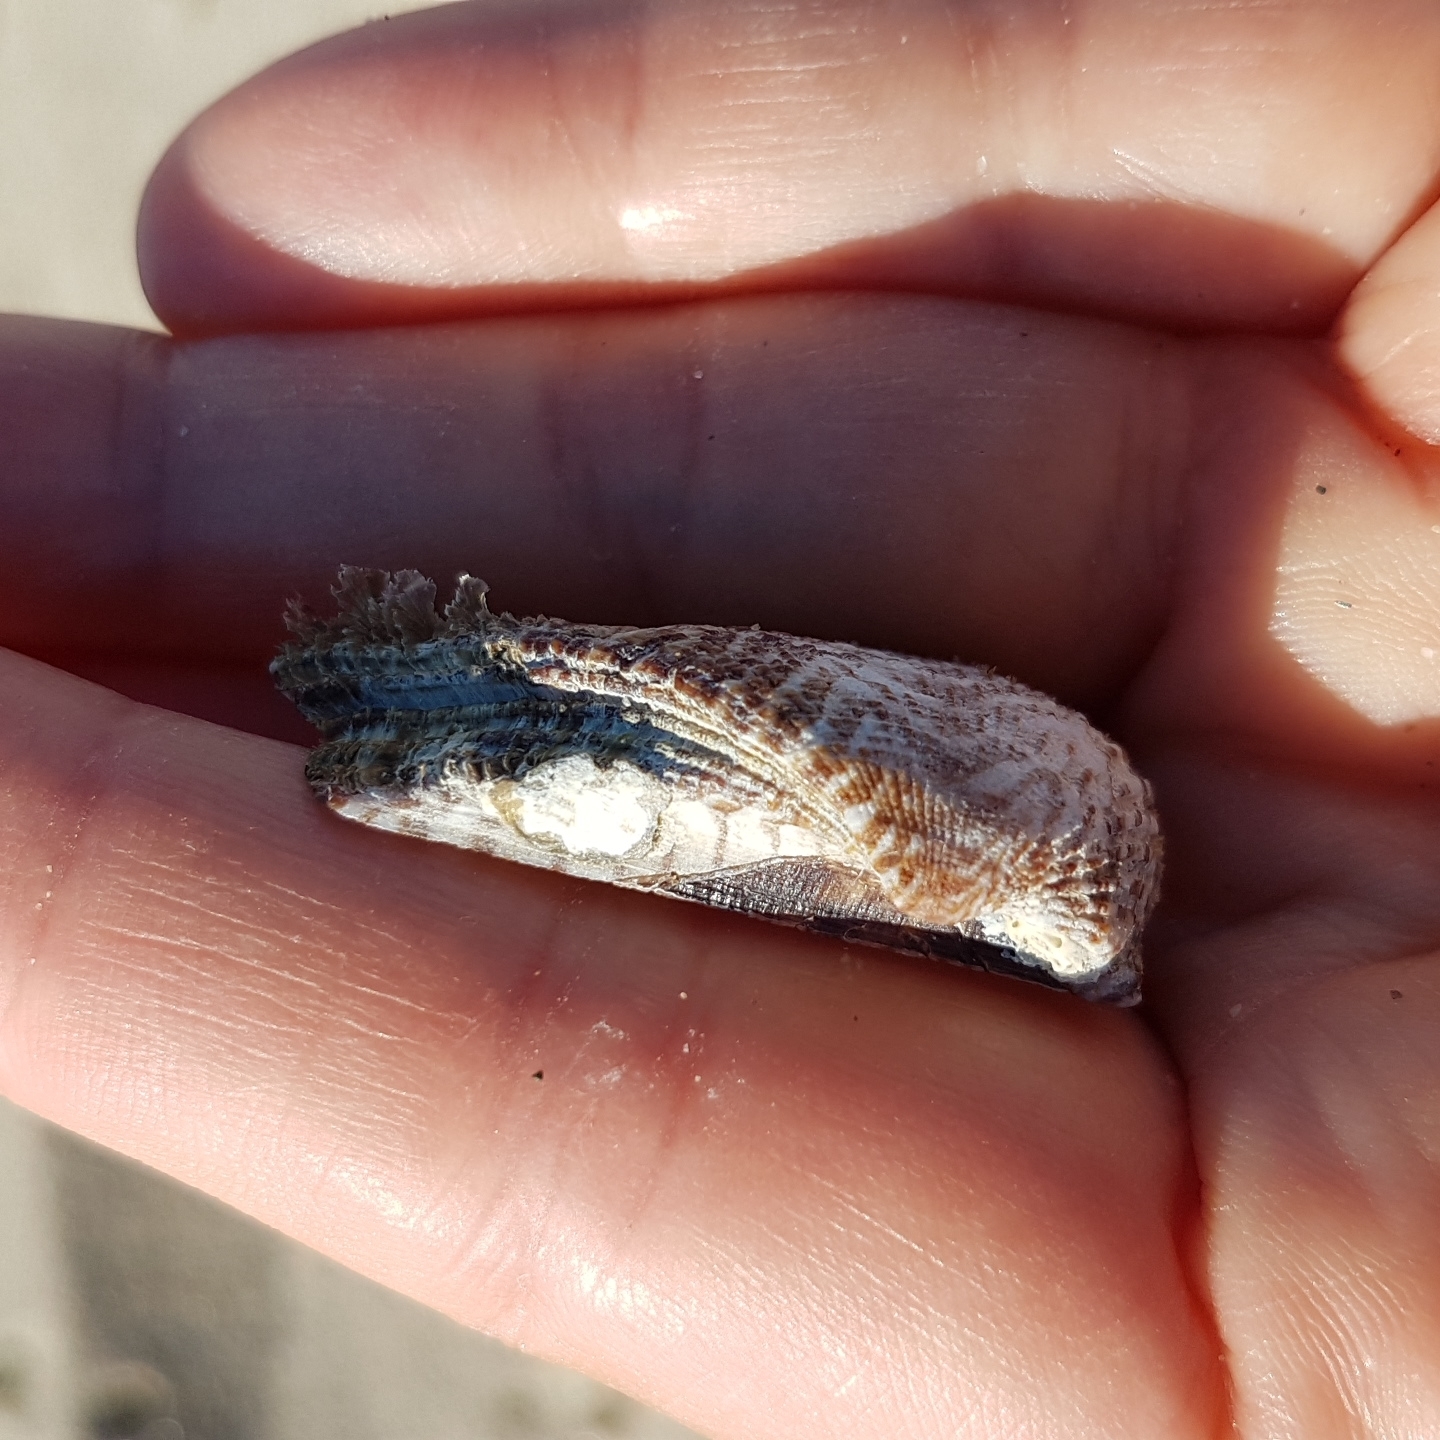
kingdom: Animalia
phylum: Mollusca
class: Bivalvia
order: Arcida
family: Arcidae
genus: Arca
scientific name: Arca noae
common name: Noah's arch
